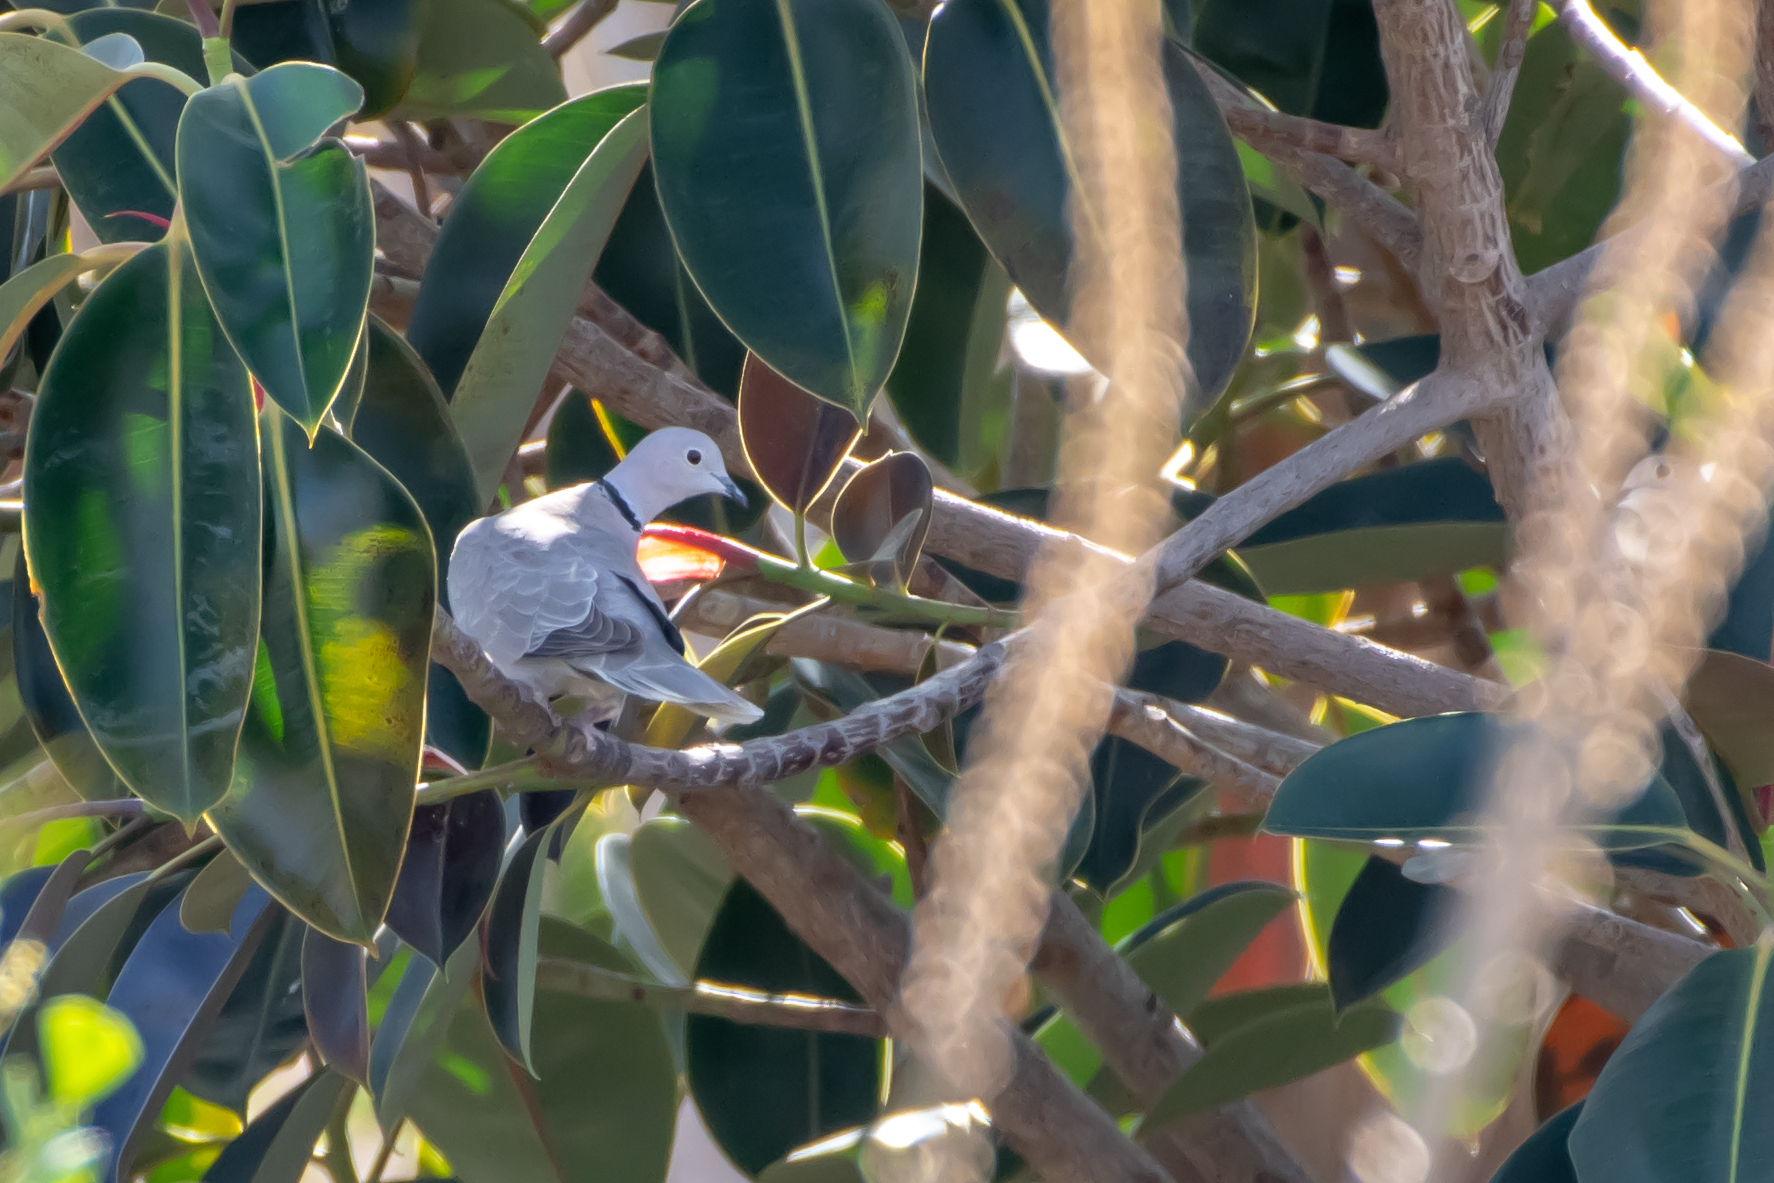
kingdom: Animalia
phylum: Chordata
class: Aves
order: Columbiformes
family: Columbidae
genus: Streptopelia
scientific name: Streptopelia decaocto
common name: Eurasian collared dove
